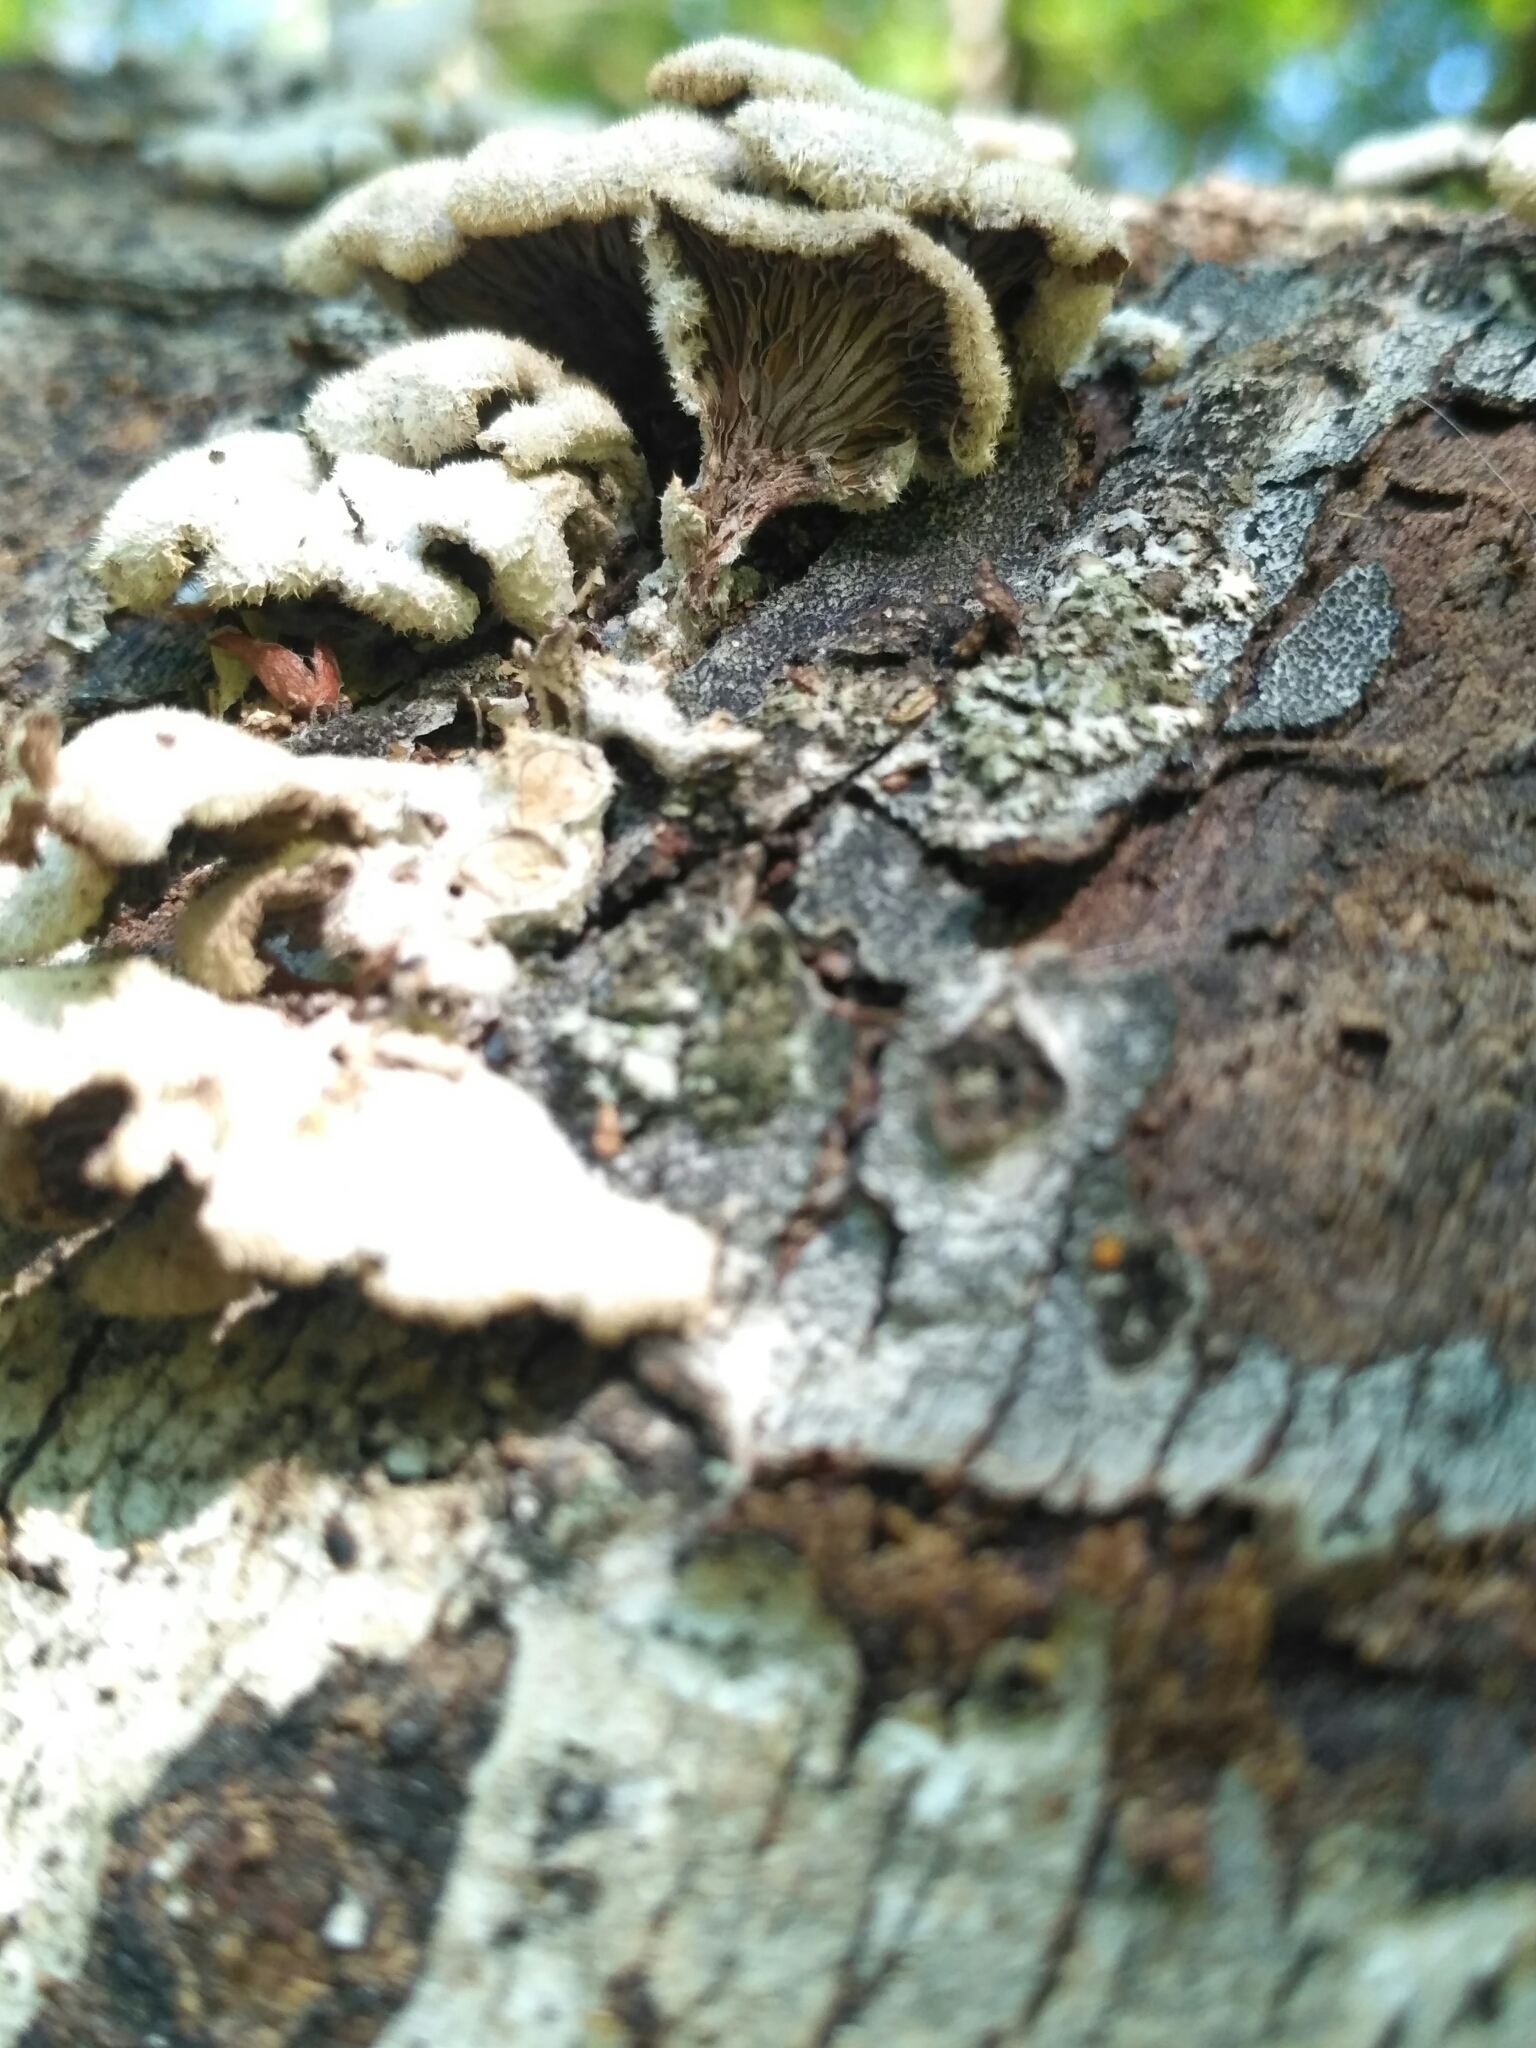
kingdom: Fungi
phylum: Basidiomycota
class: Agaricomycetes
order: Agaricales
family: Schizophyllaceae
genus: Schizophyllum
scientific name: Schizophyllum commune
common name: Common porecrust
